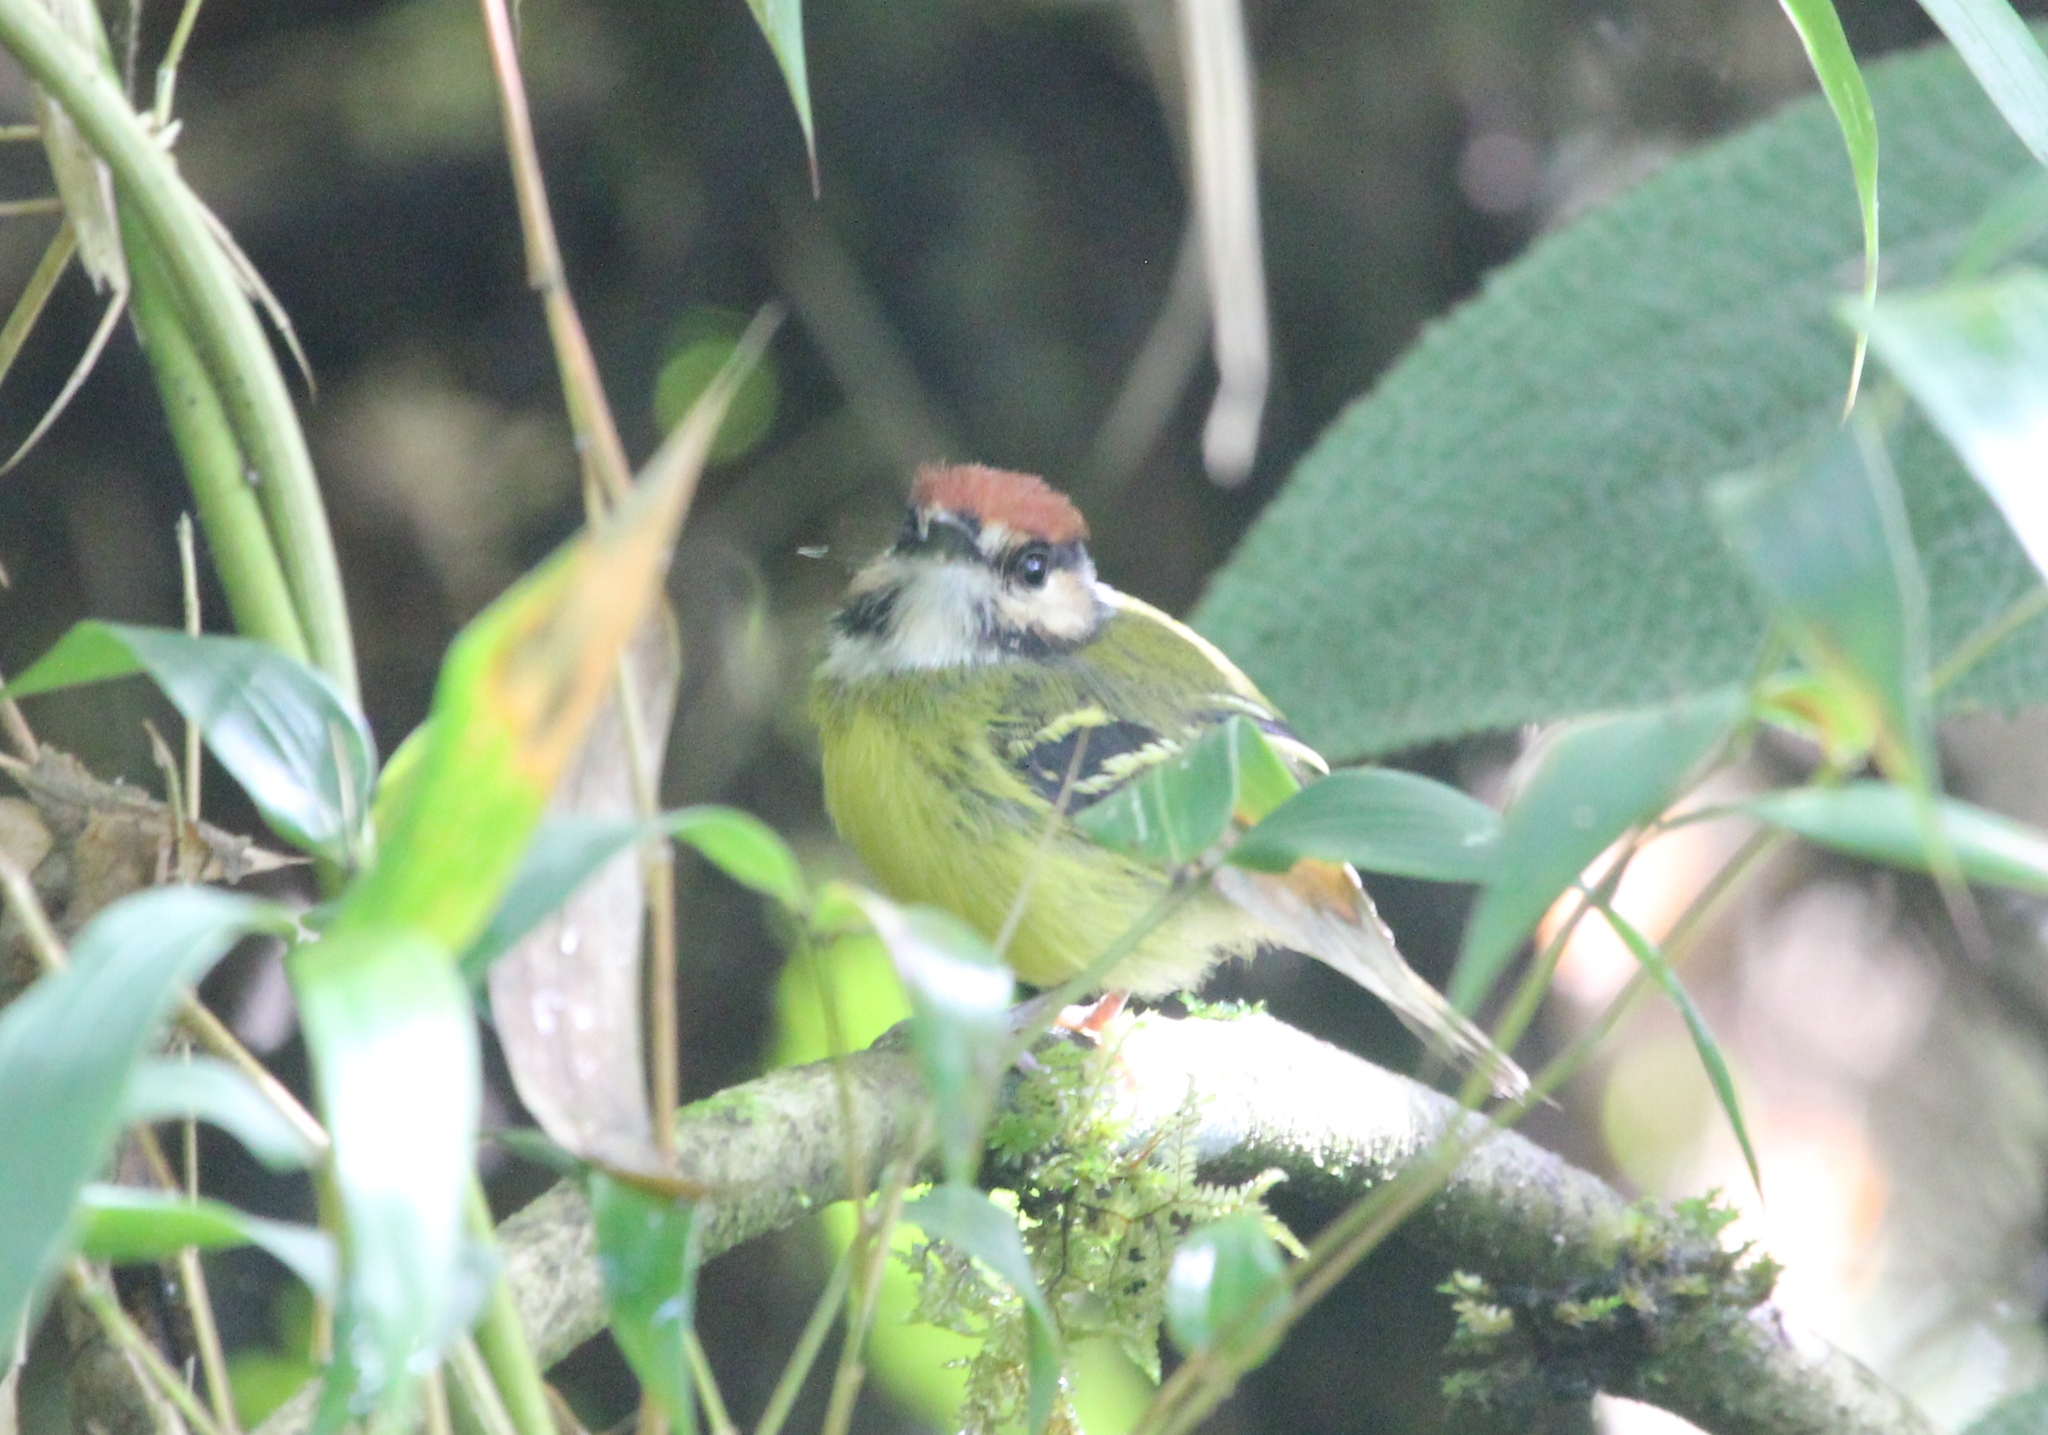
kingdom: Animalia
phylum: Chordata
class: Aves
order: Passeriformes
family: Tyrannidae
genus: Poecilotriccus
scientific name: Poecilotriccus ruficeps
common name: Rufous-crowned tody-flycatcher
